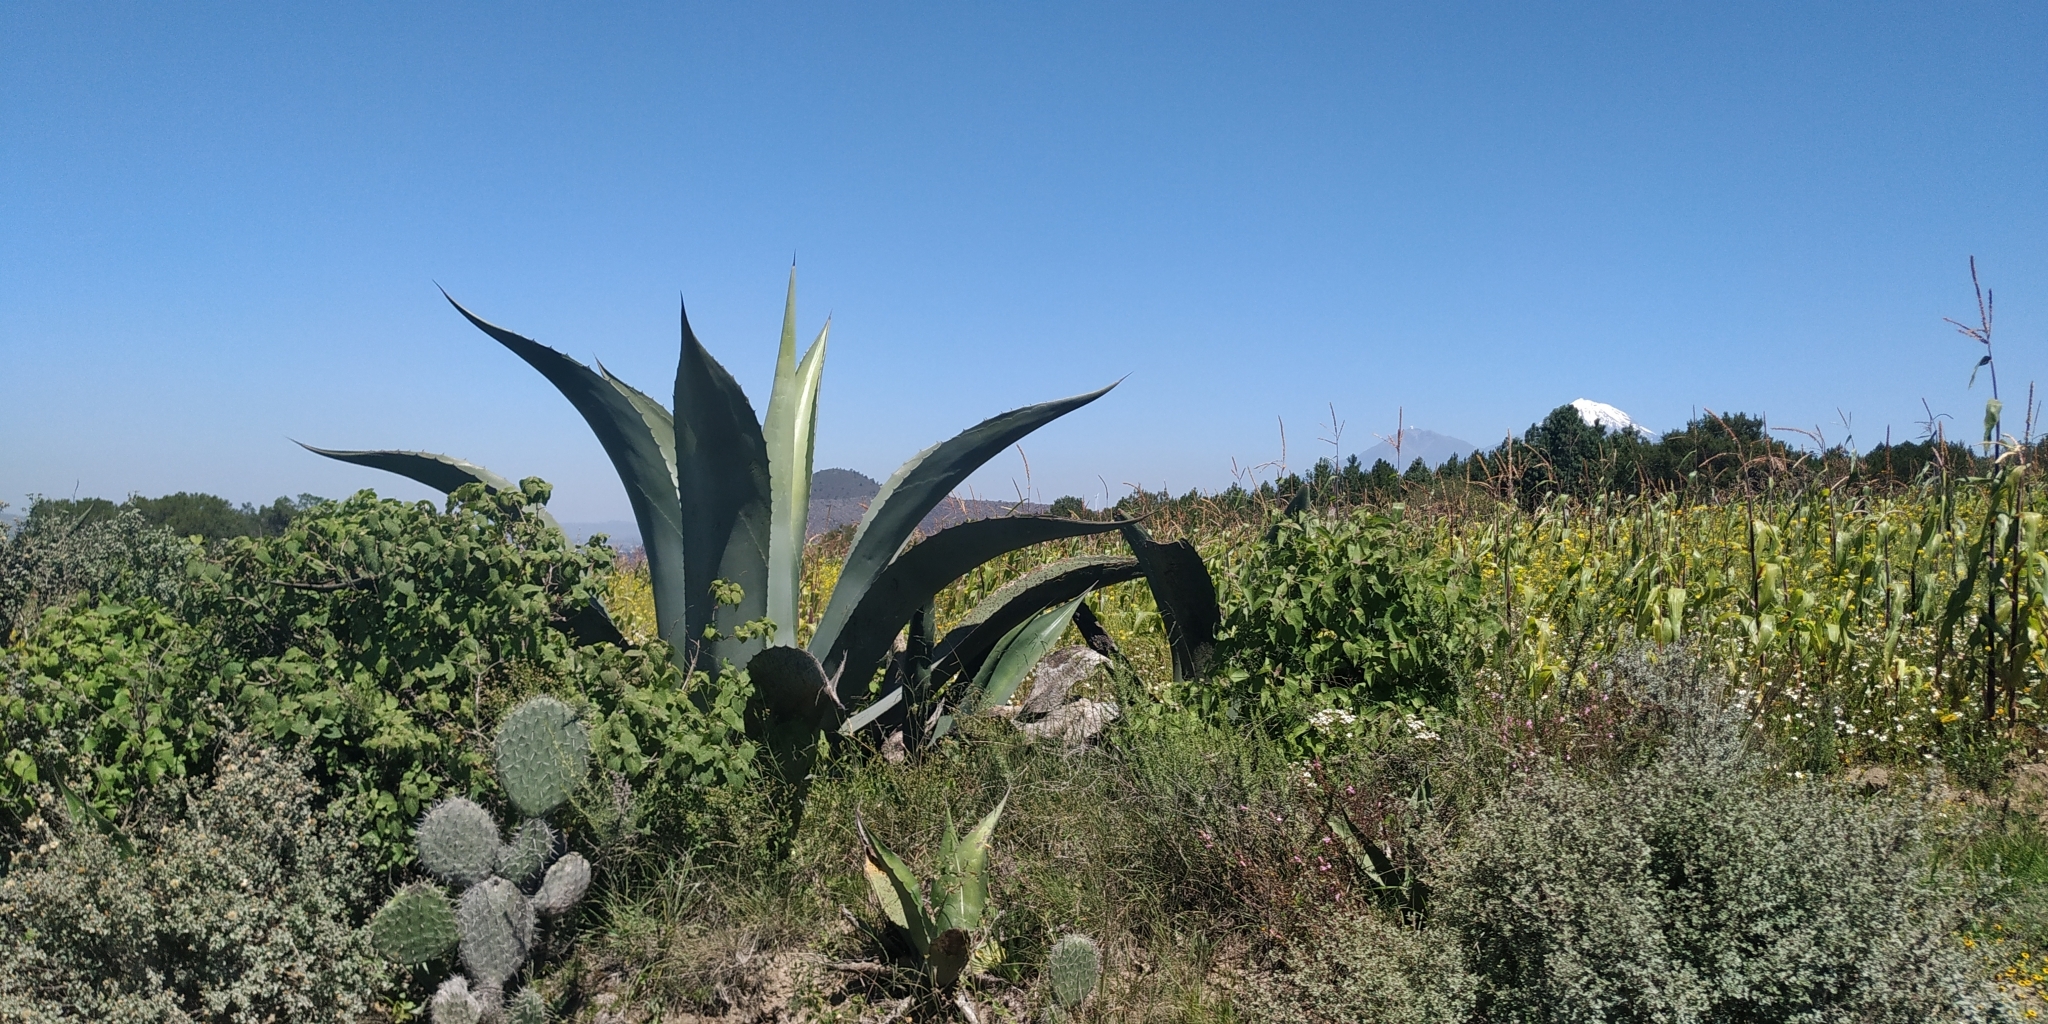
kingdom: Plantae
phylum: Tracheophyta
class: Liliopsida
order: Asparagales
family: Asparagaceae
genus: Agave
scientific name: Agave salmiana
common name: Pulque agave
